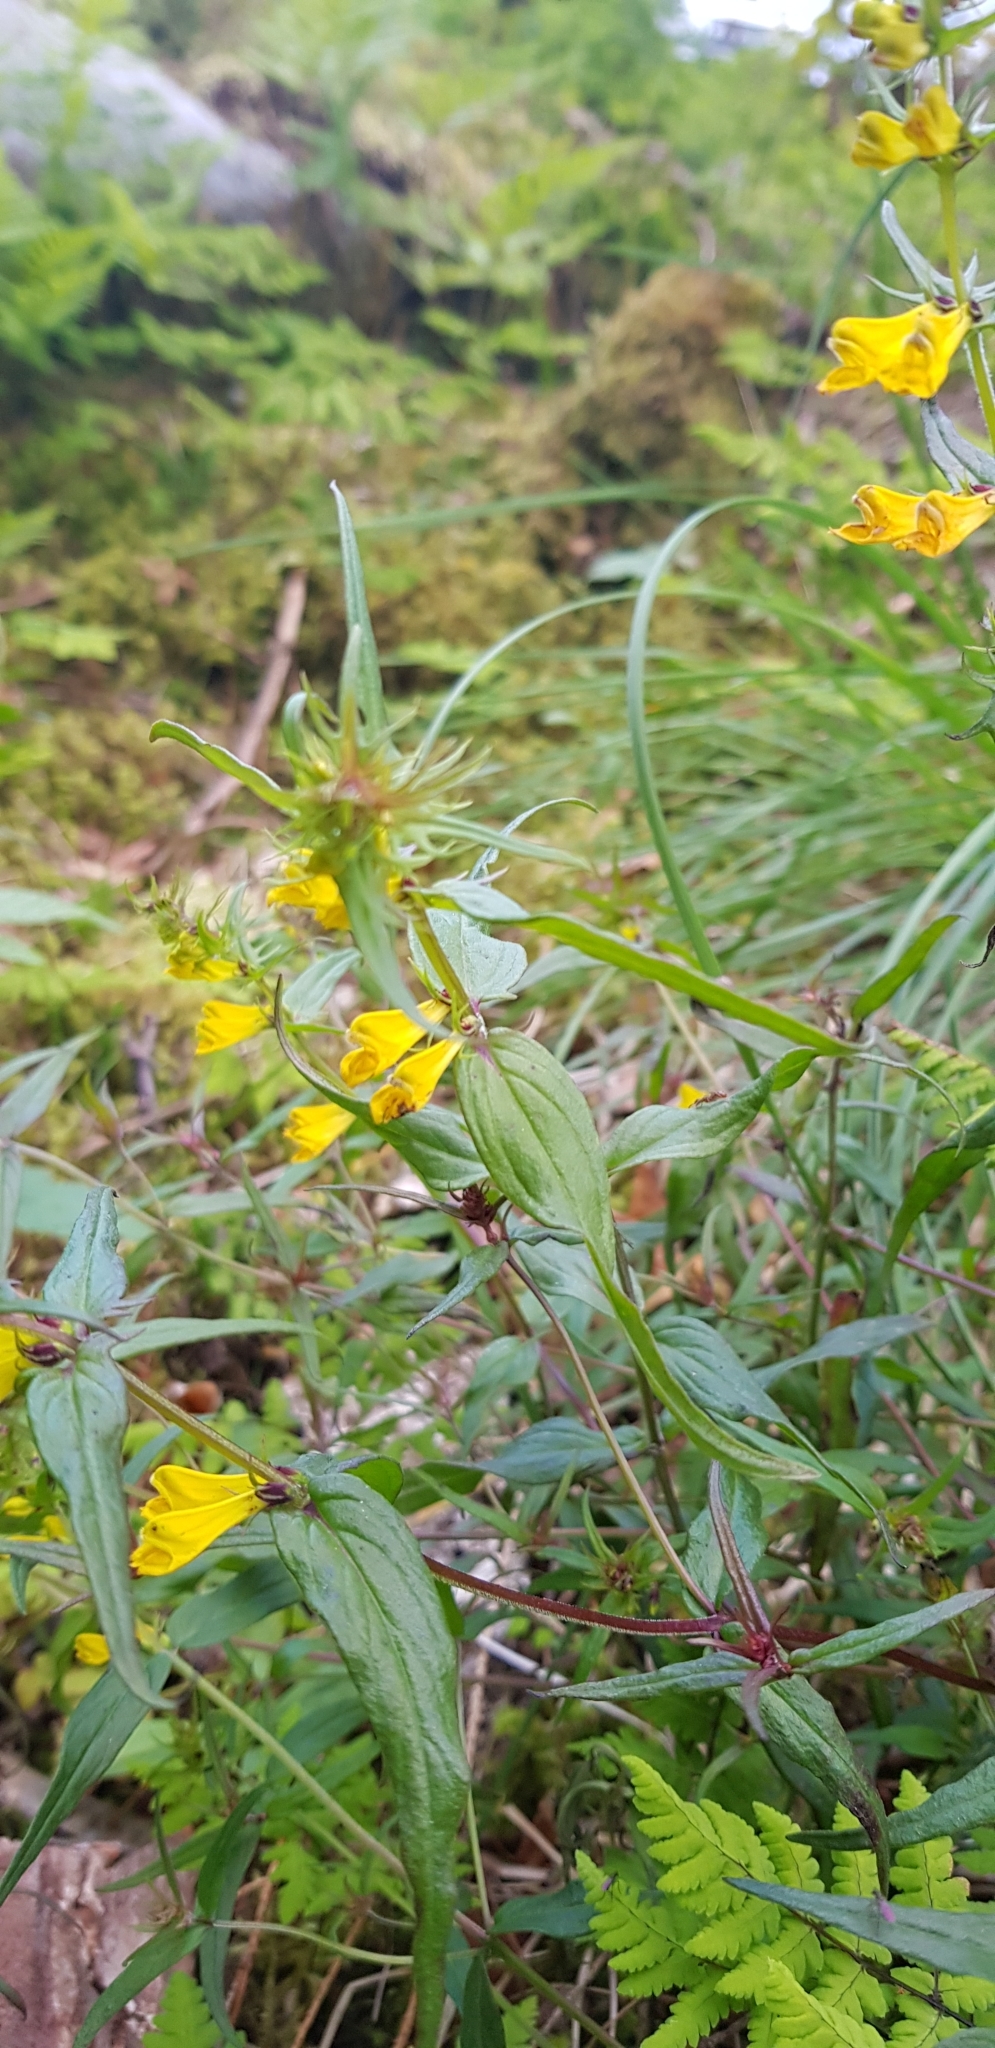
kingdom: Plantae
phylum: Tracheophyta
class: Magnoliopsida
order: Lamiales
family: Orobanchaceae
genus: Melampyrum
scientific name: Melampyrum pratense
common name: Common cow-wheat
